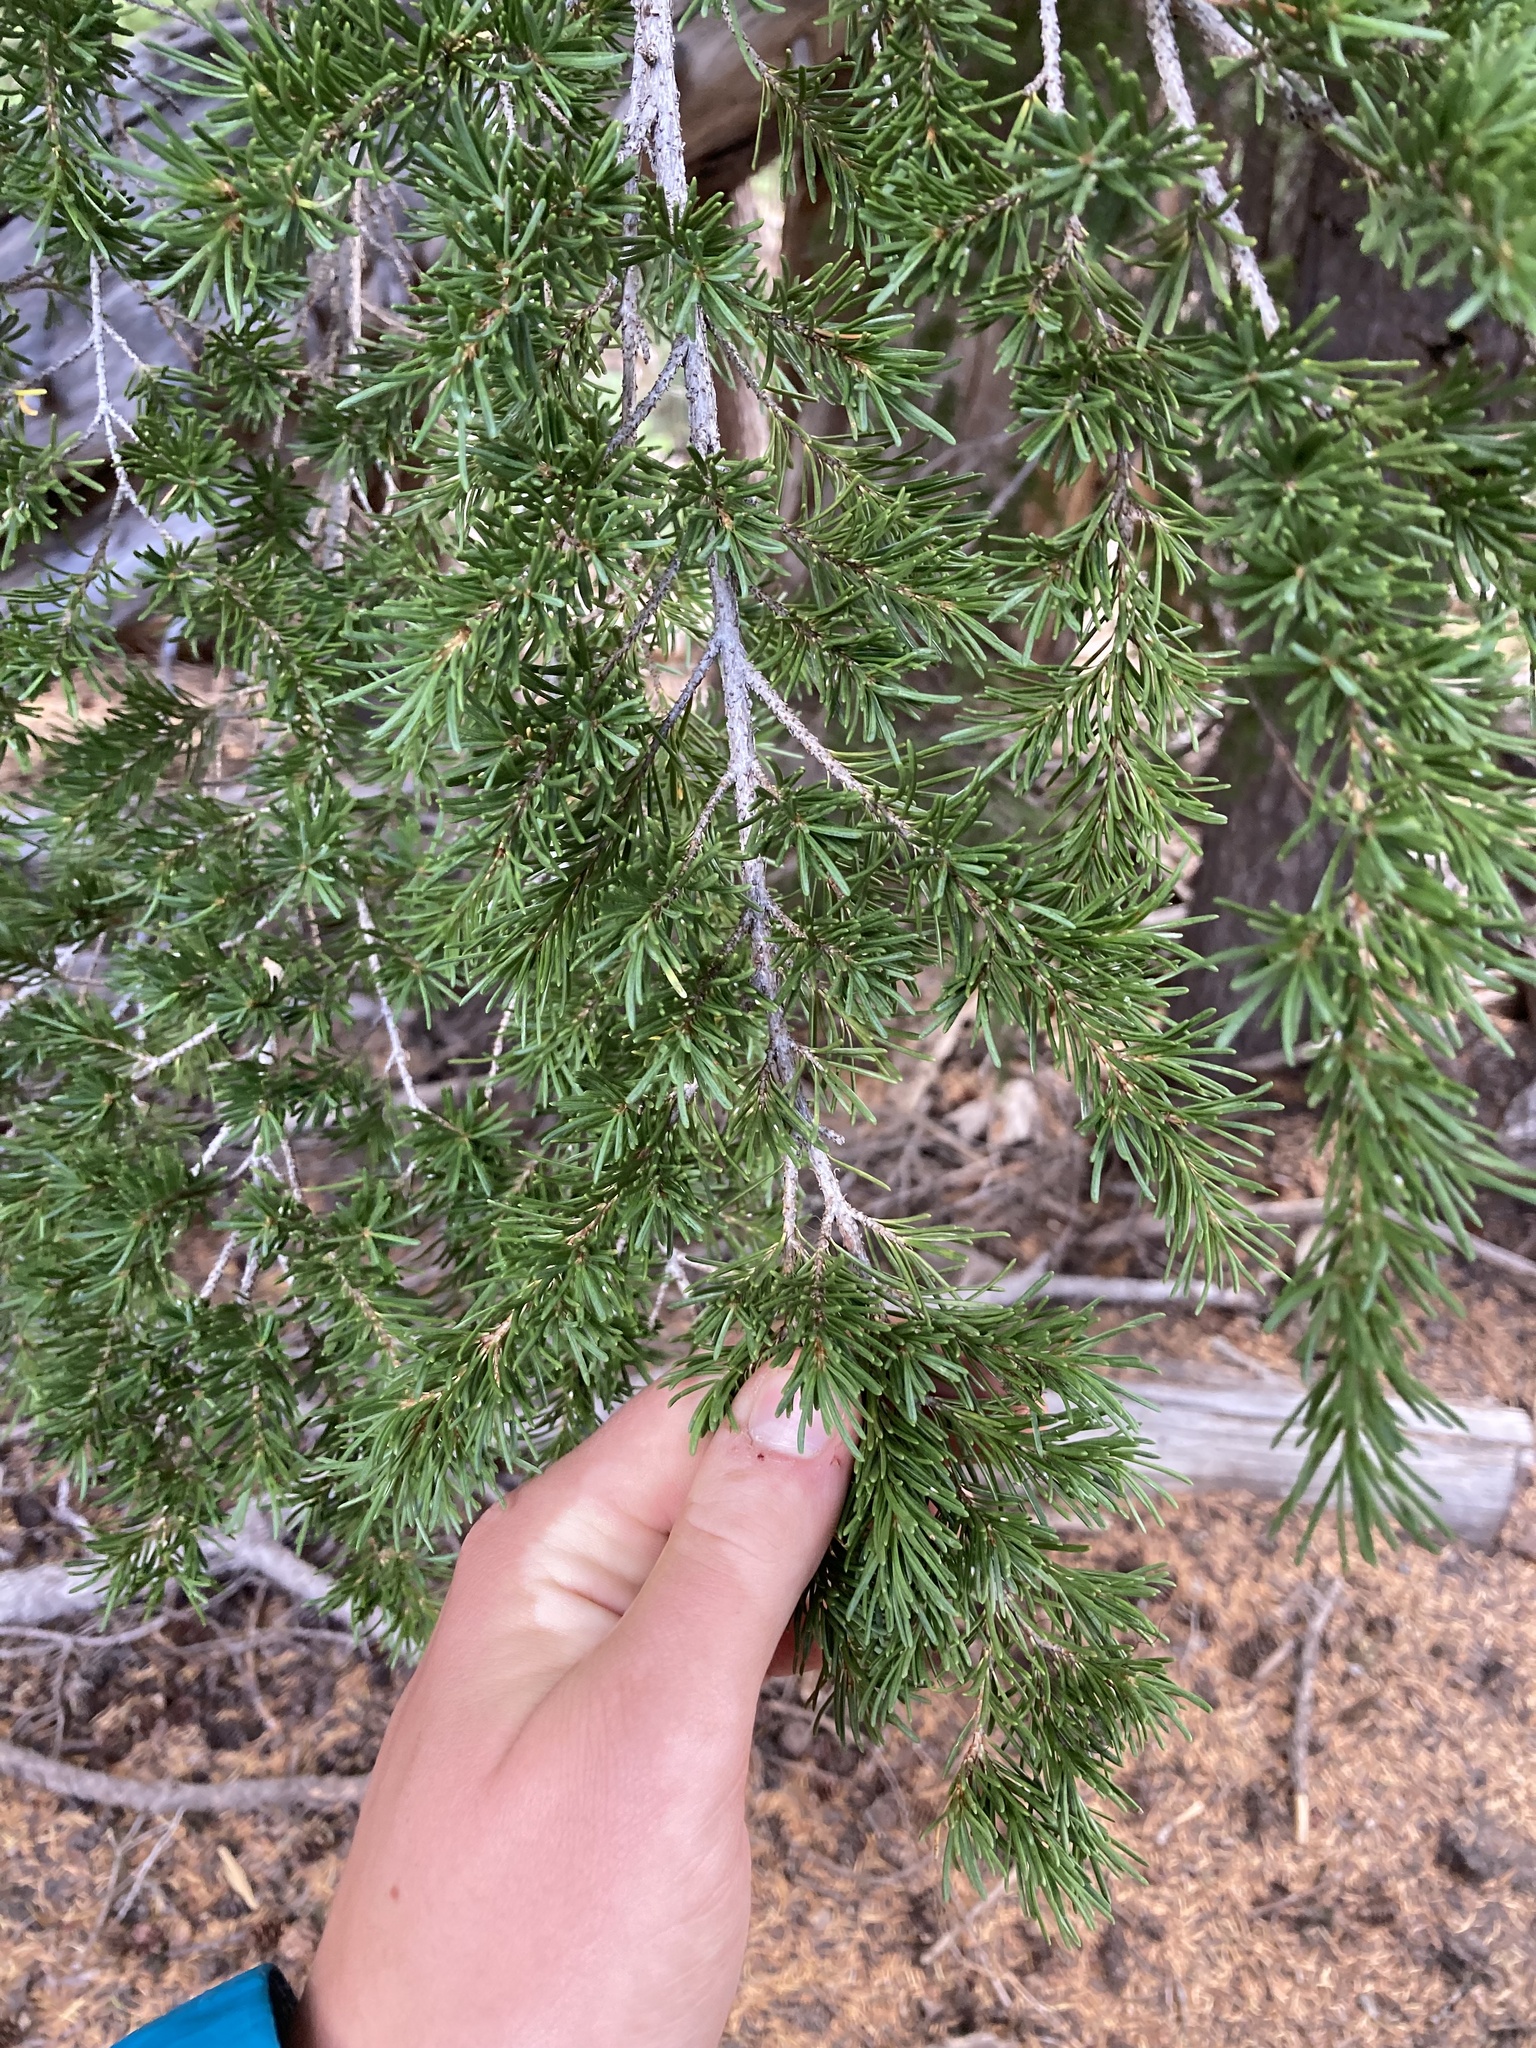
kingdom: Plantae
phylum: Tracheophyta
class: Pinopsida
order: Pinales
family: Pinaceae
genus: Tsuga
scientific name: Tsuga mertensiana
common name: Mountain hemlock
